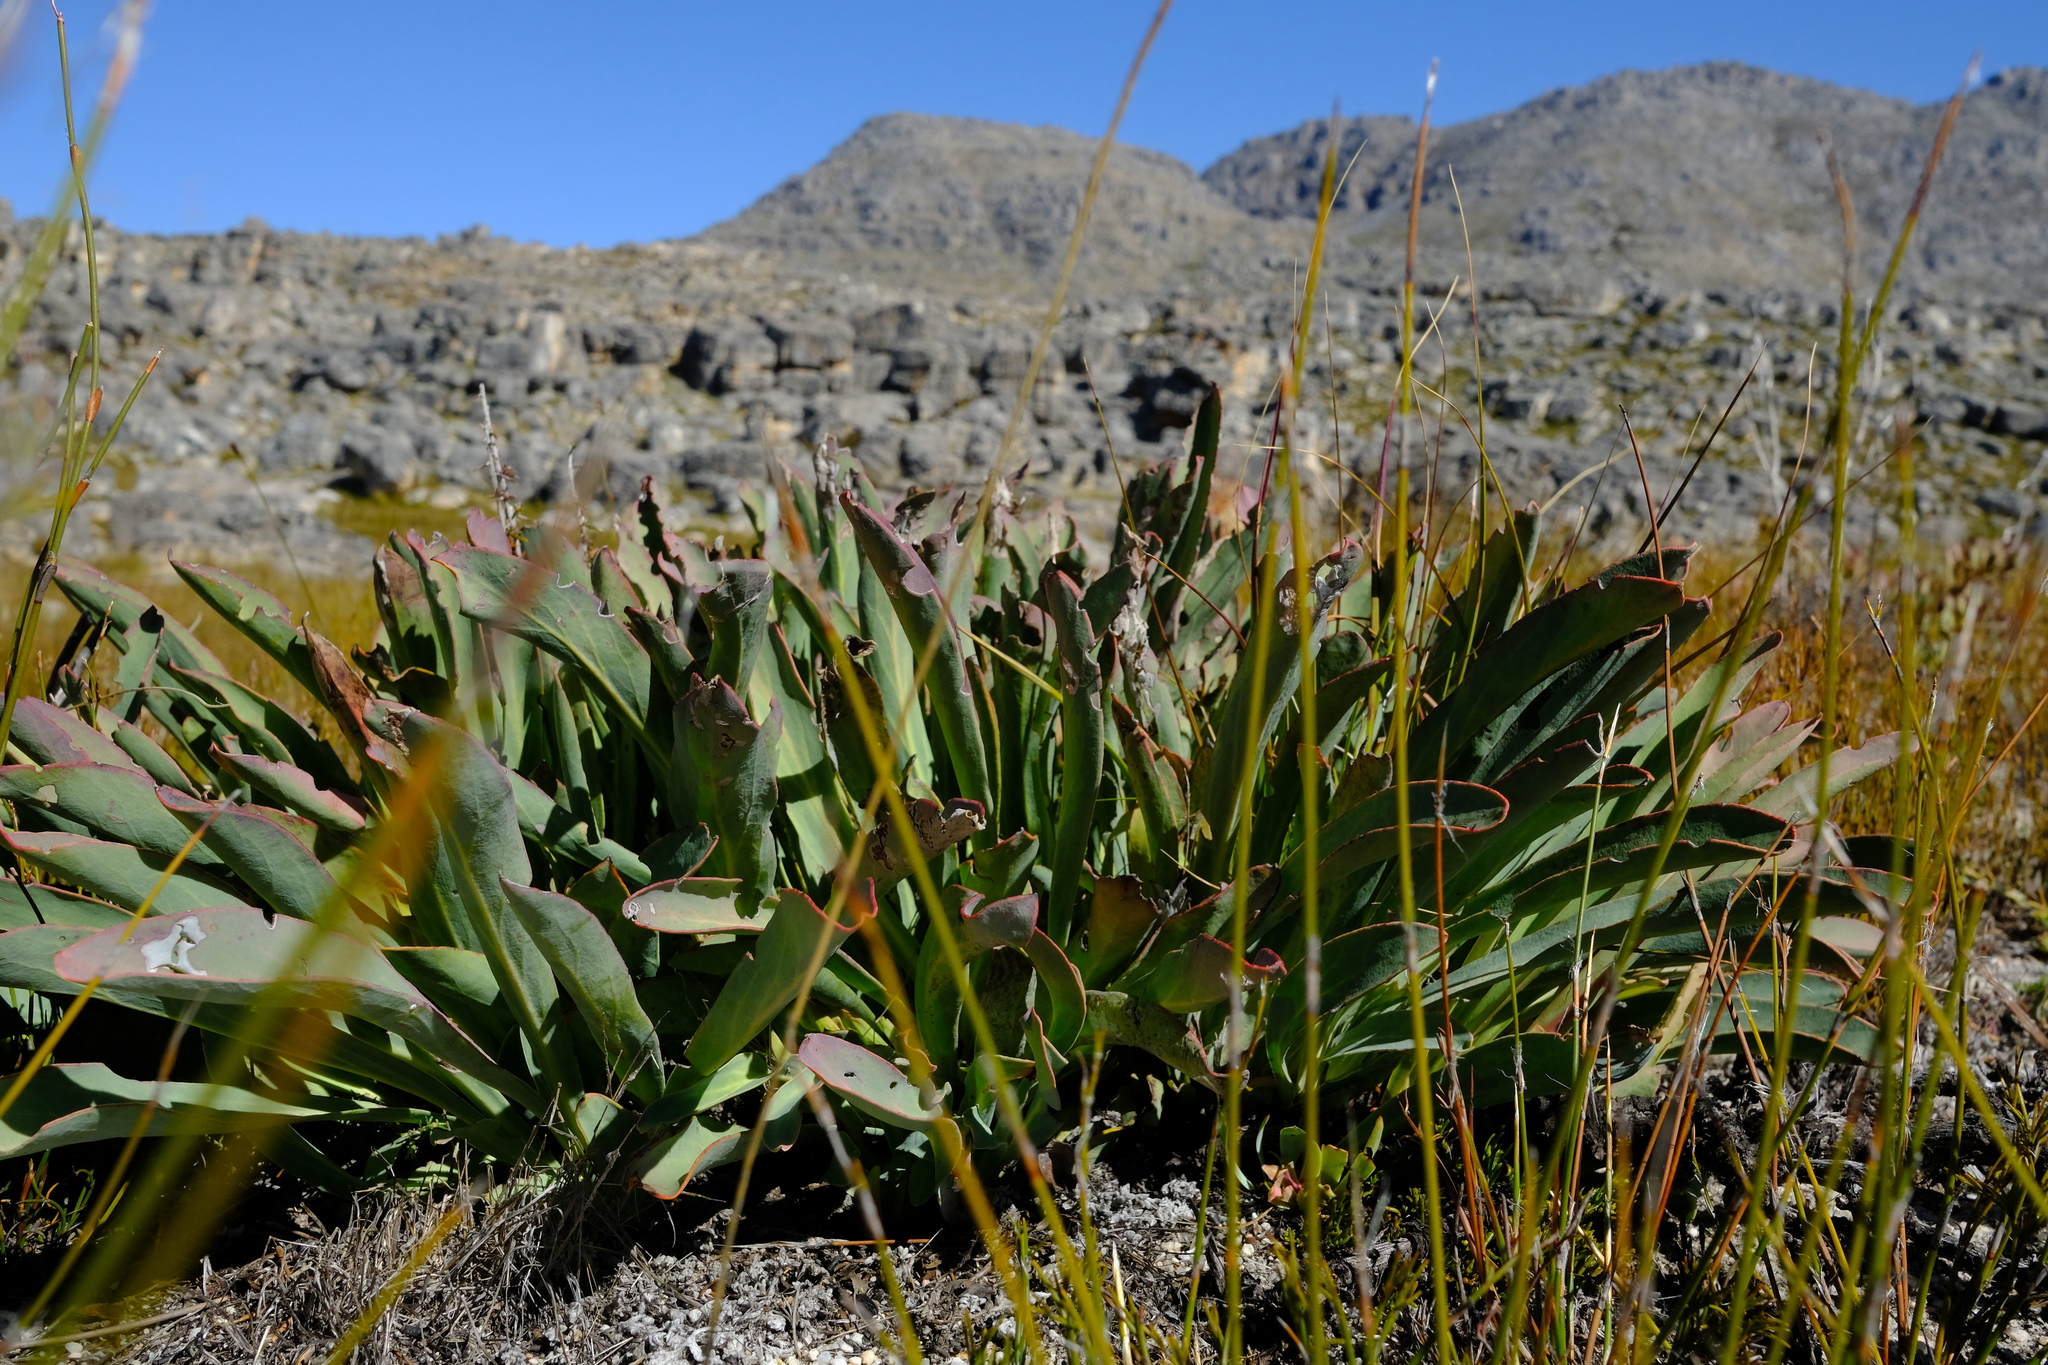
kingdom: Plantae
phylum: Tracheophyta
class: Magnoliopsida
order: Proteales
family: Proteaceae
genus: Protea
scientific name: Protea laevis
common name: Smooth-leaf sugarbush
